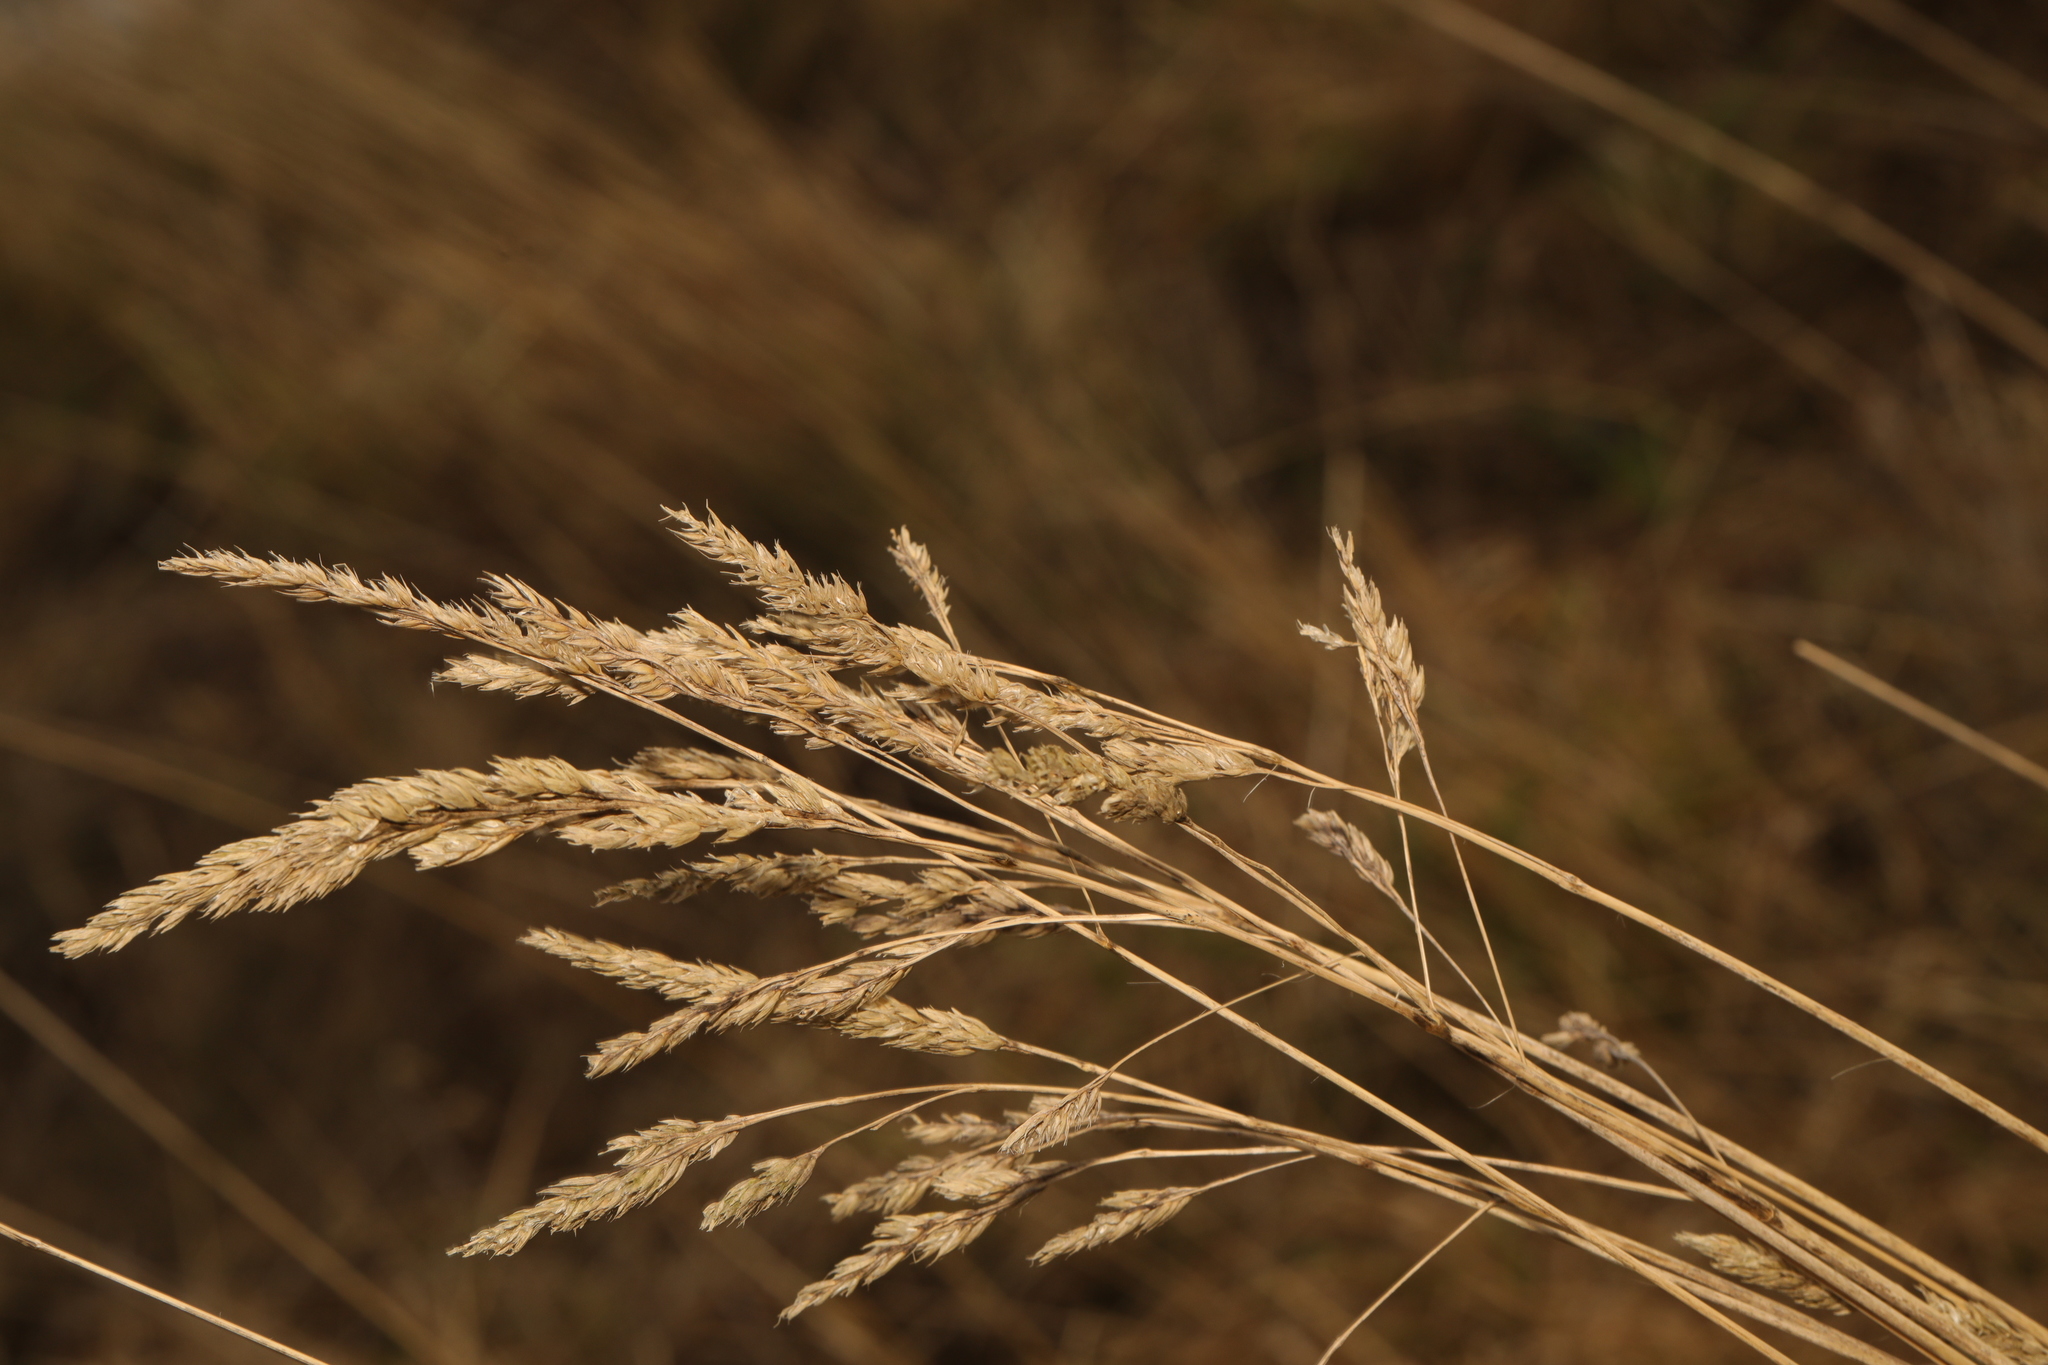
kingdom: Plantae
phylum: Tracheophyta
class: Liliopsida
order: Poales
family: Poaceae
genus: Dactylis
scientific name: Dactylis glomerata
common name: Orchardgrass
